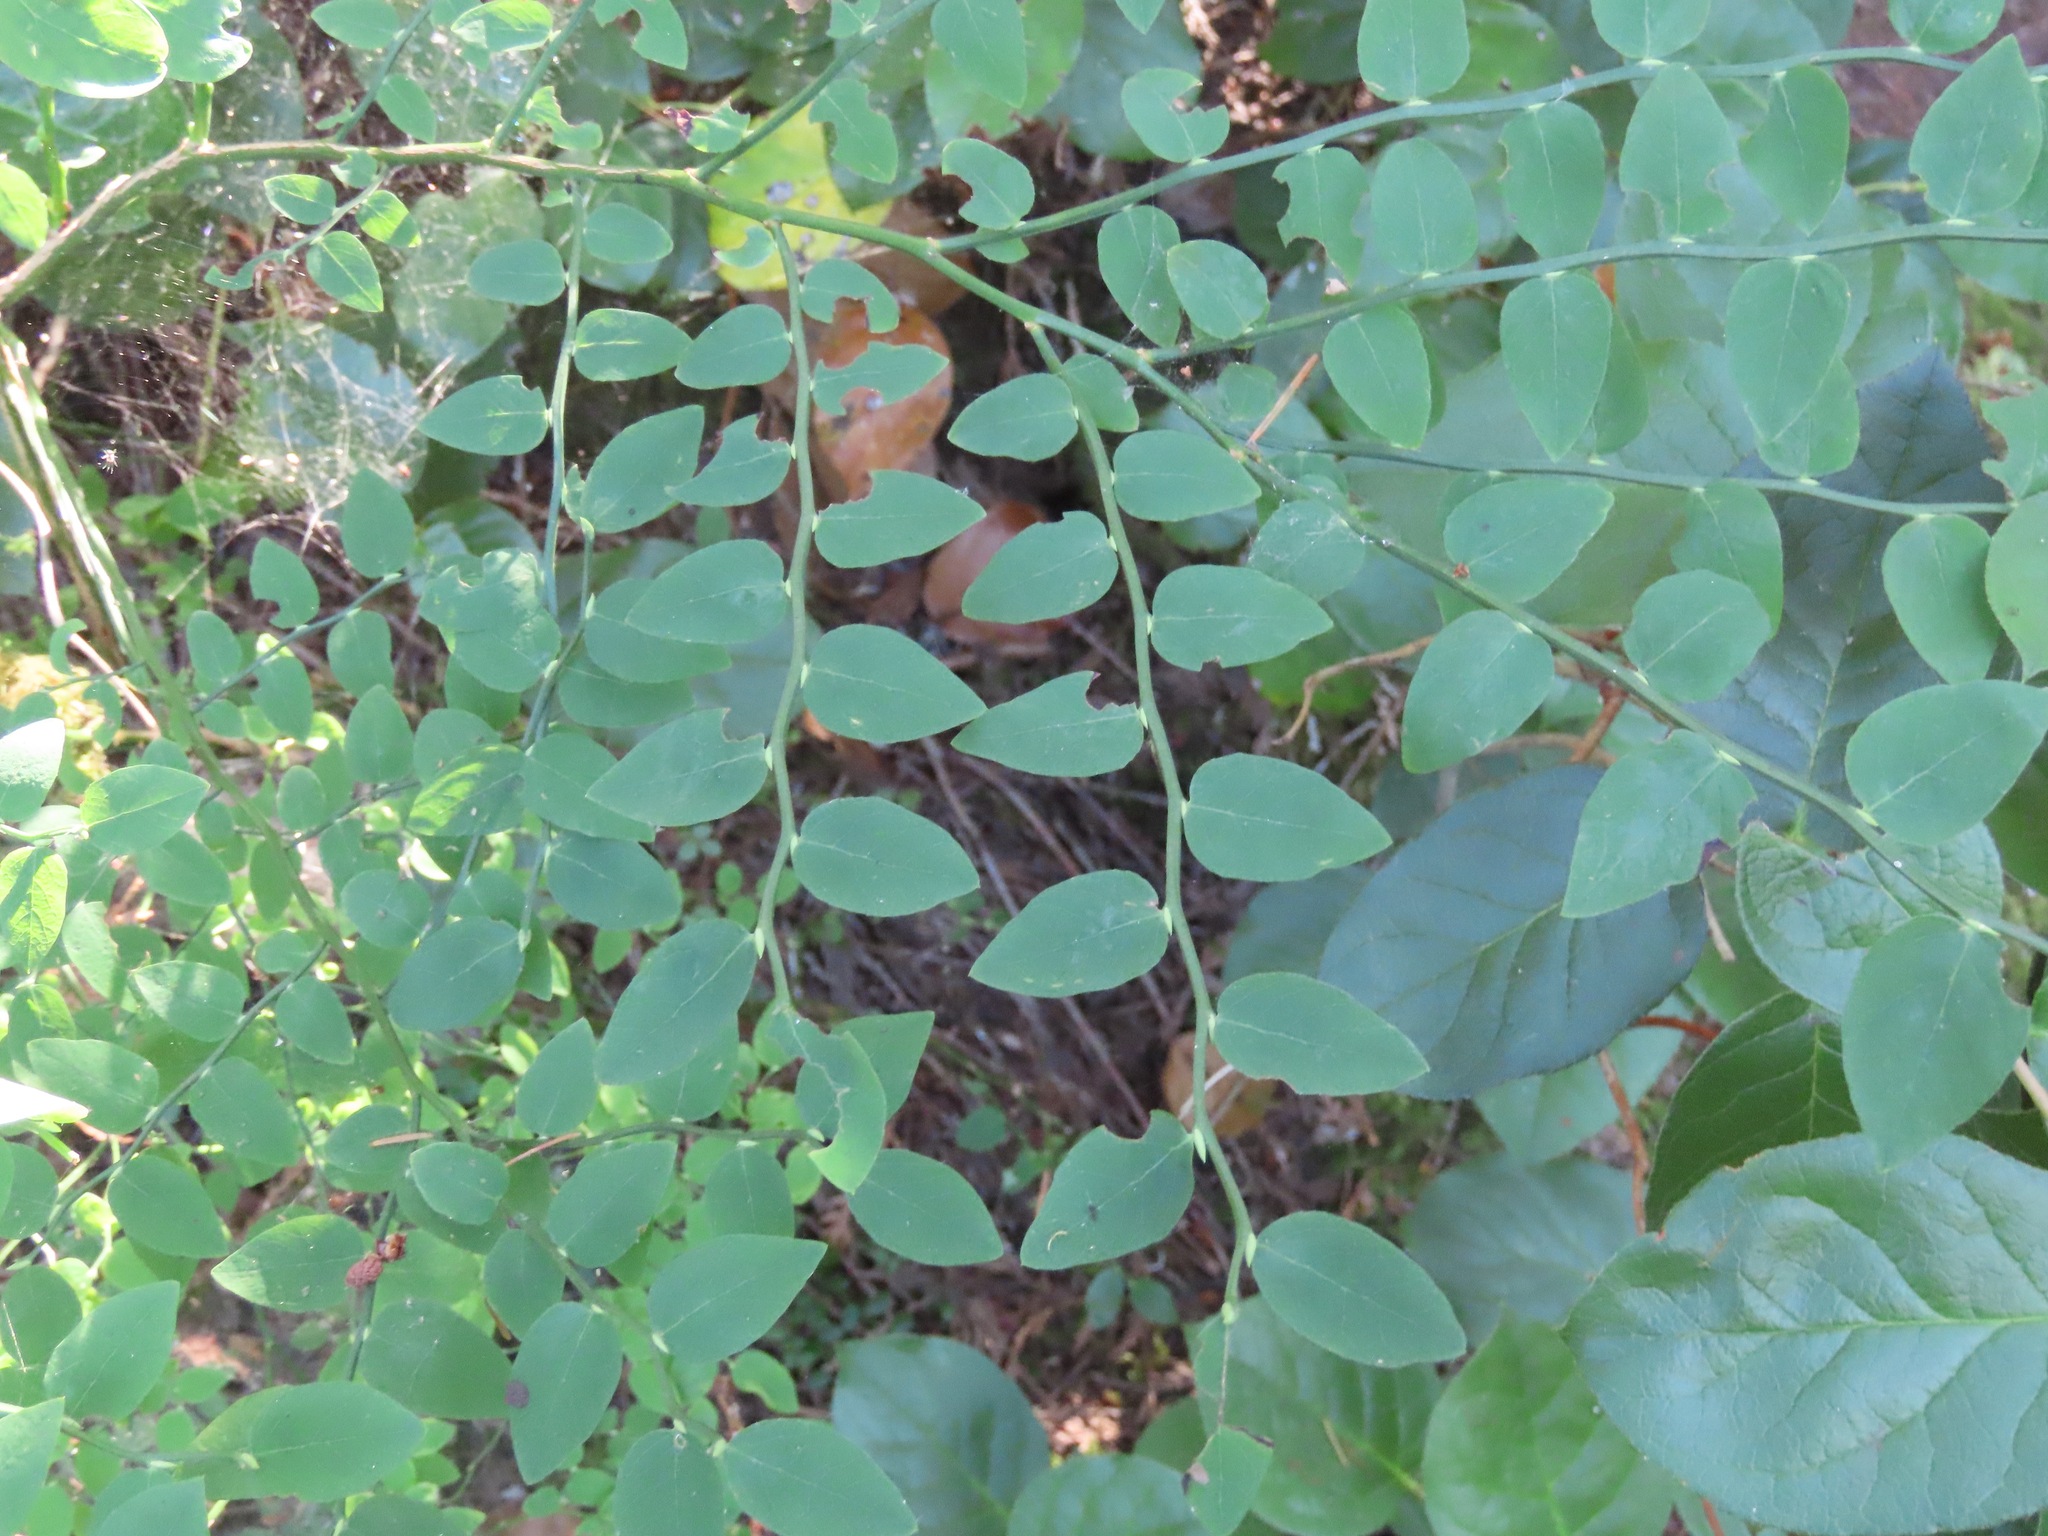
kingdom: Plantae
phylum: Tracheophyta
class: Magnoliopsida
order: Ericales
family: Ericaceae
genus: Vaccinium
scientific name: Vaccinium parvifolium
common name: Red-huckleberry
